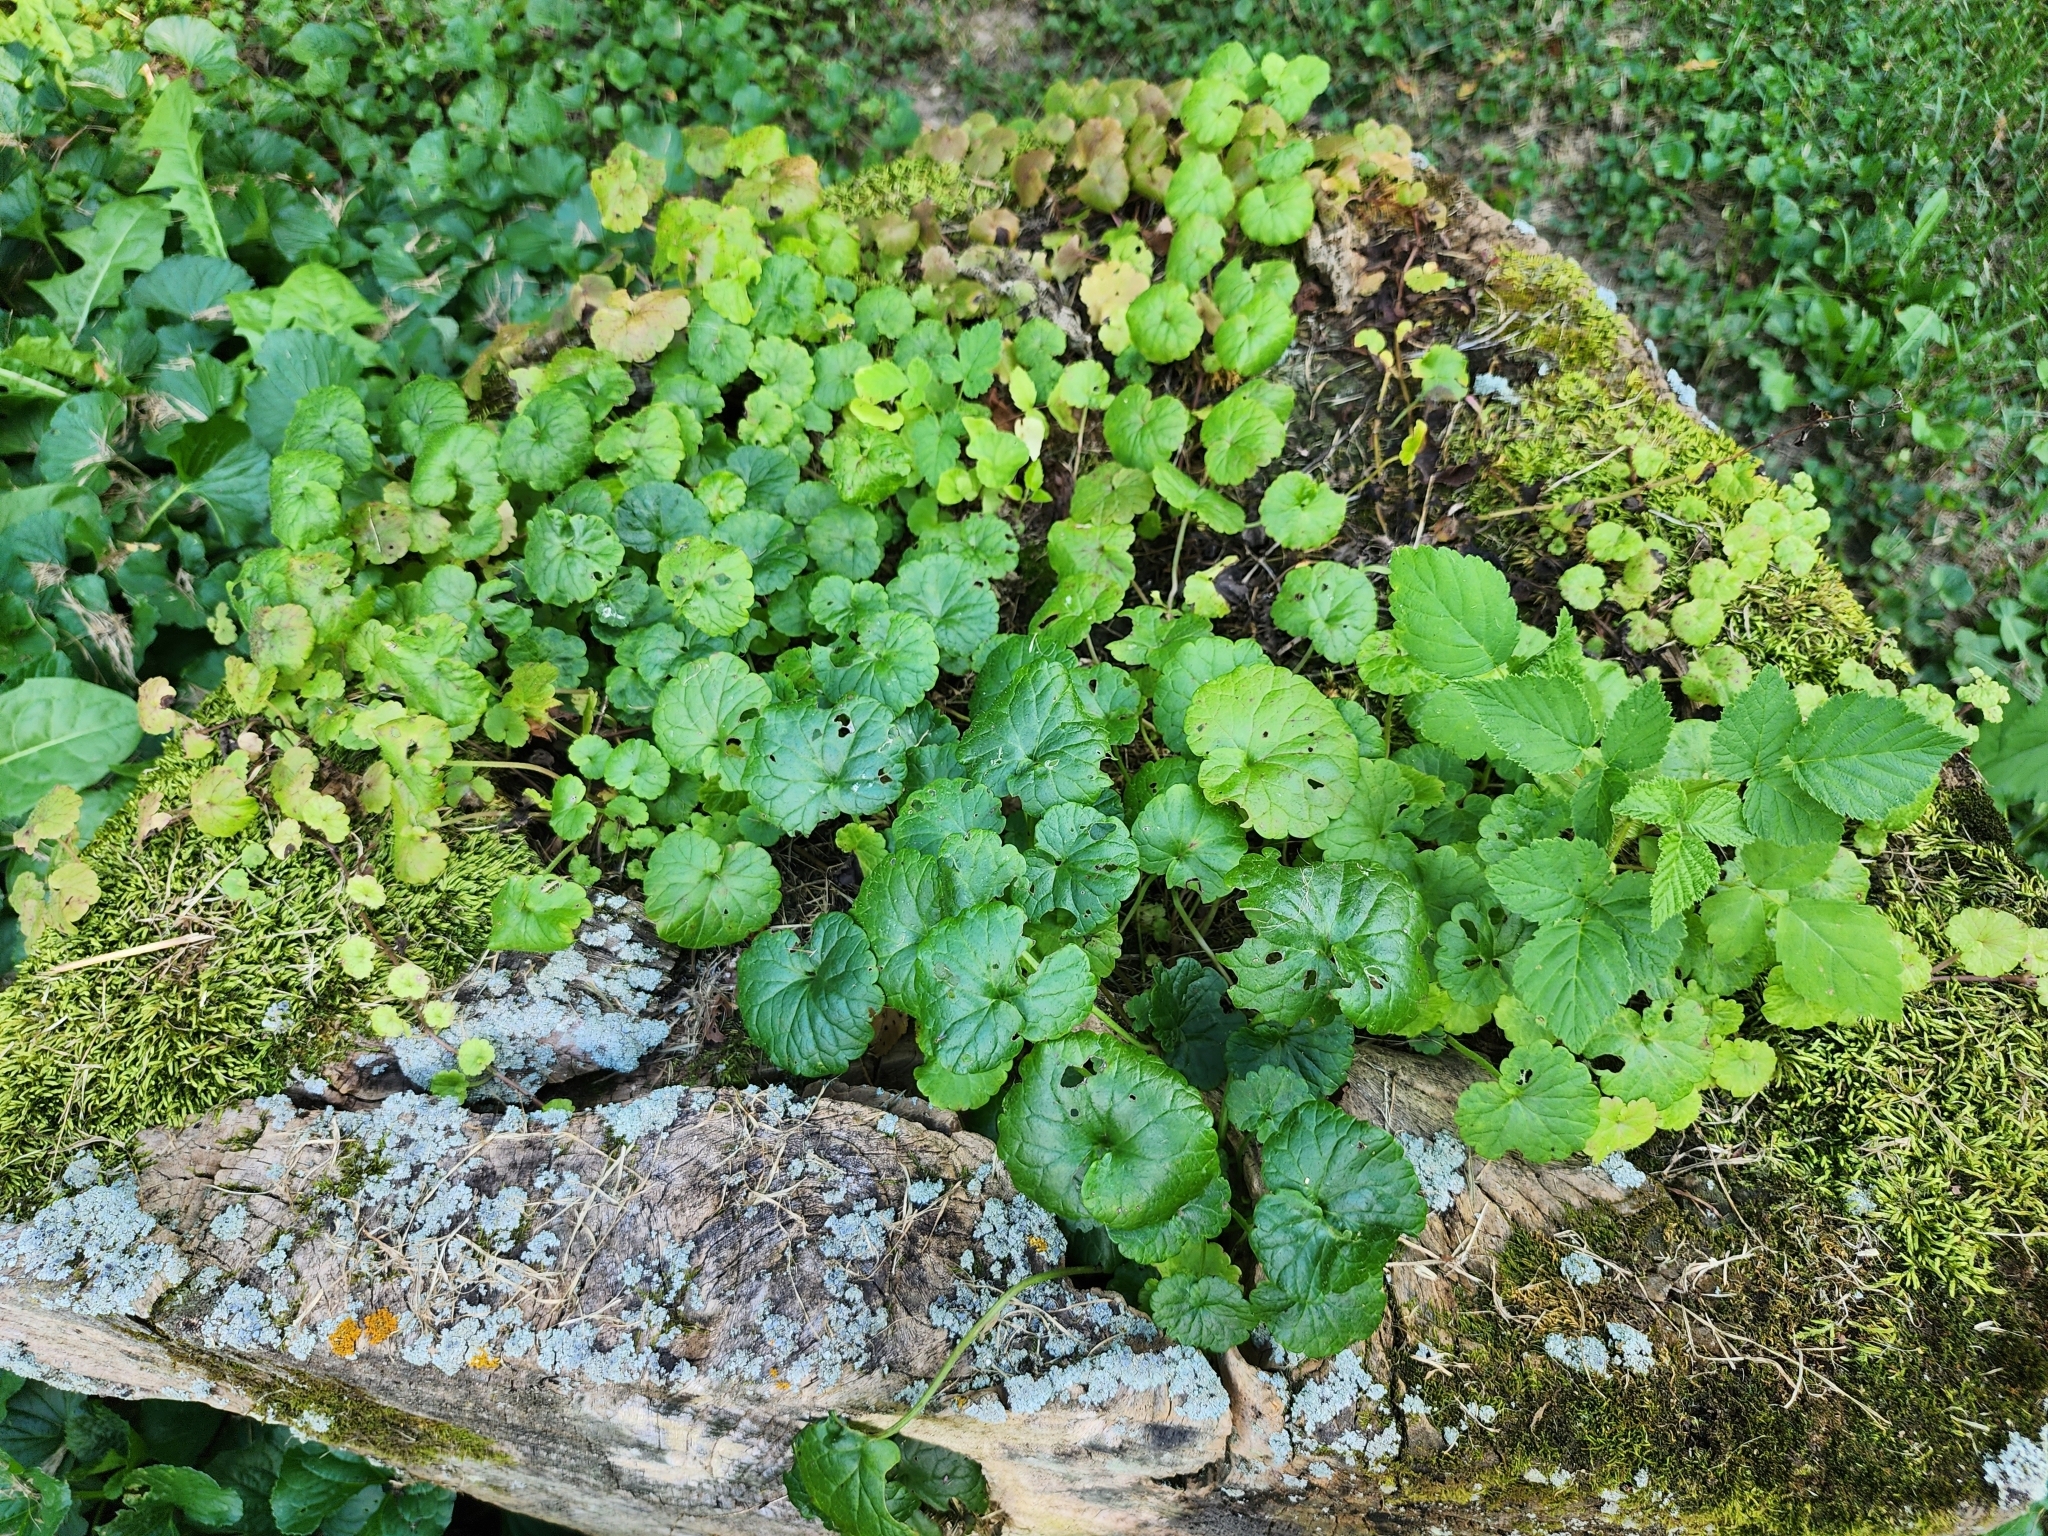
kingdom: Plantae
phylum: Tracheophyta
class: Magnoliopsida
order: Lamiales
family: Lamiaceae
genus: Glechoma
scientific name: Glechoma hederacea
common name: Ground ivy
